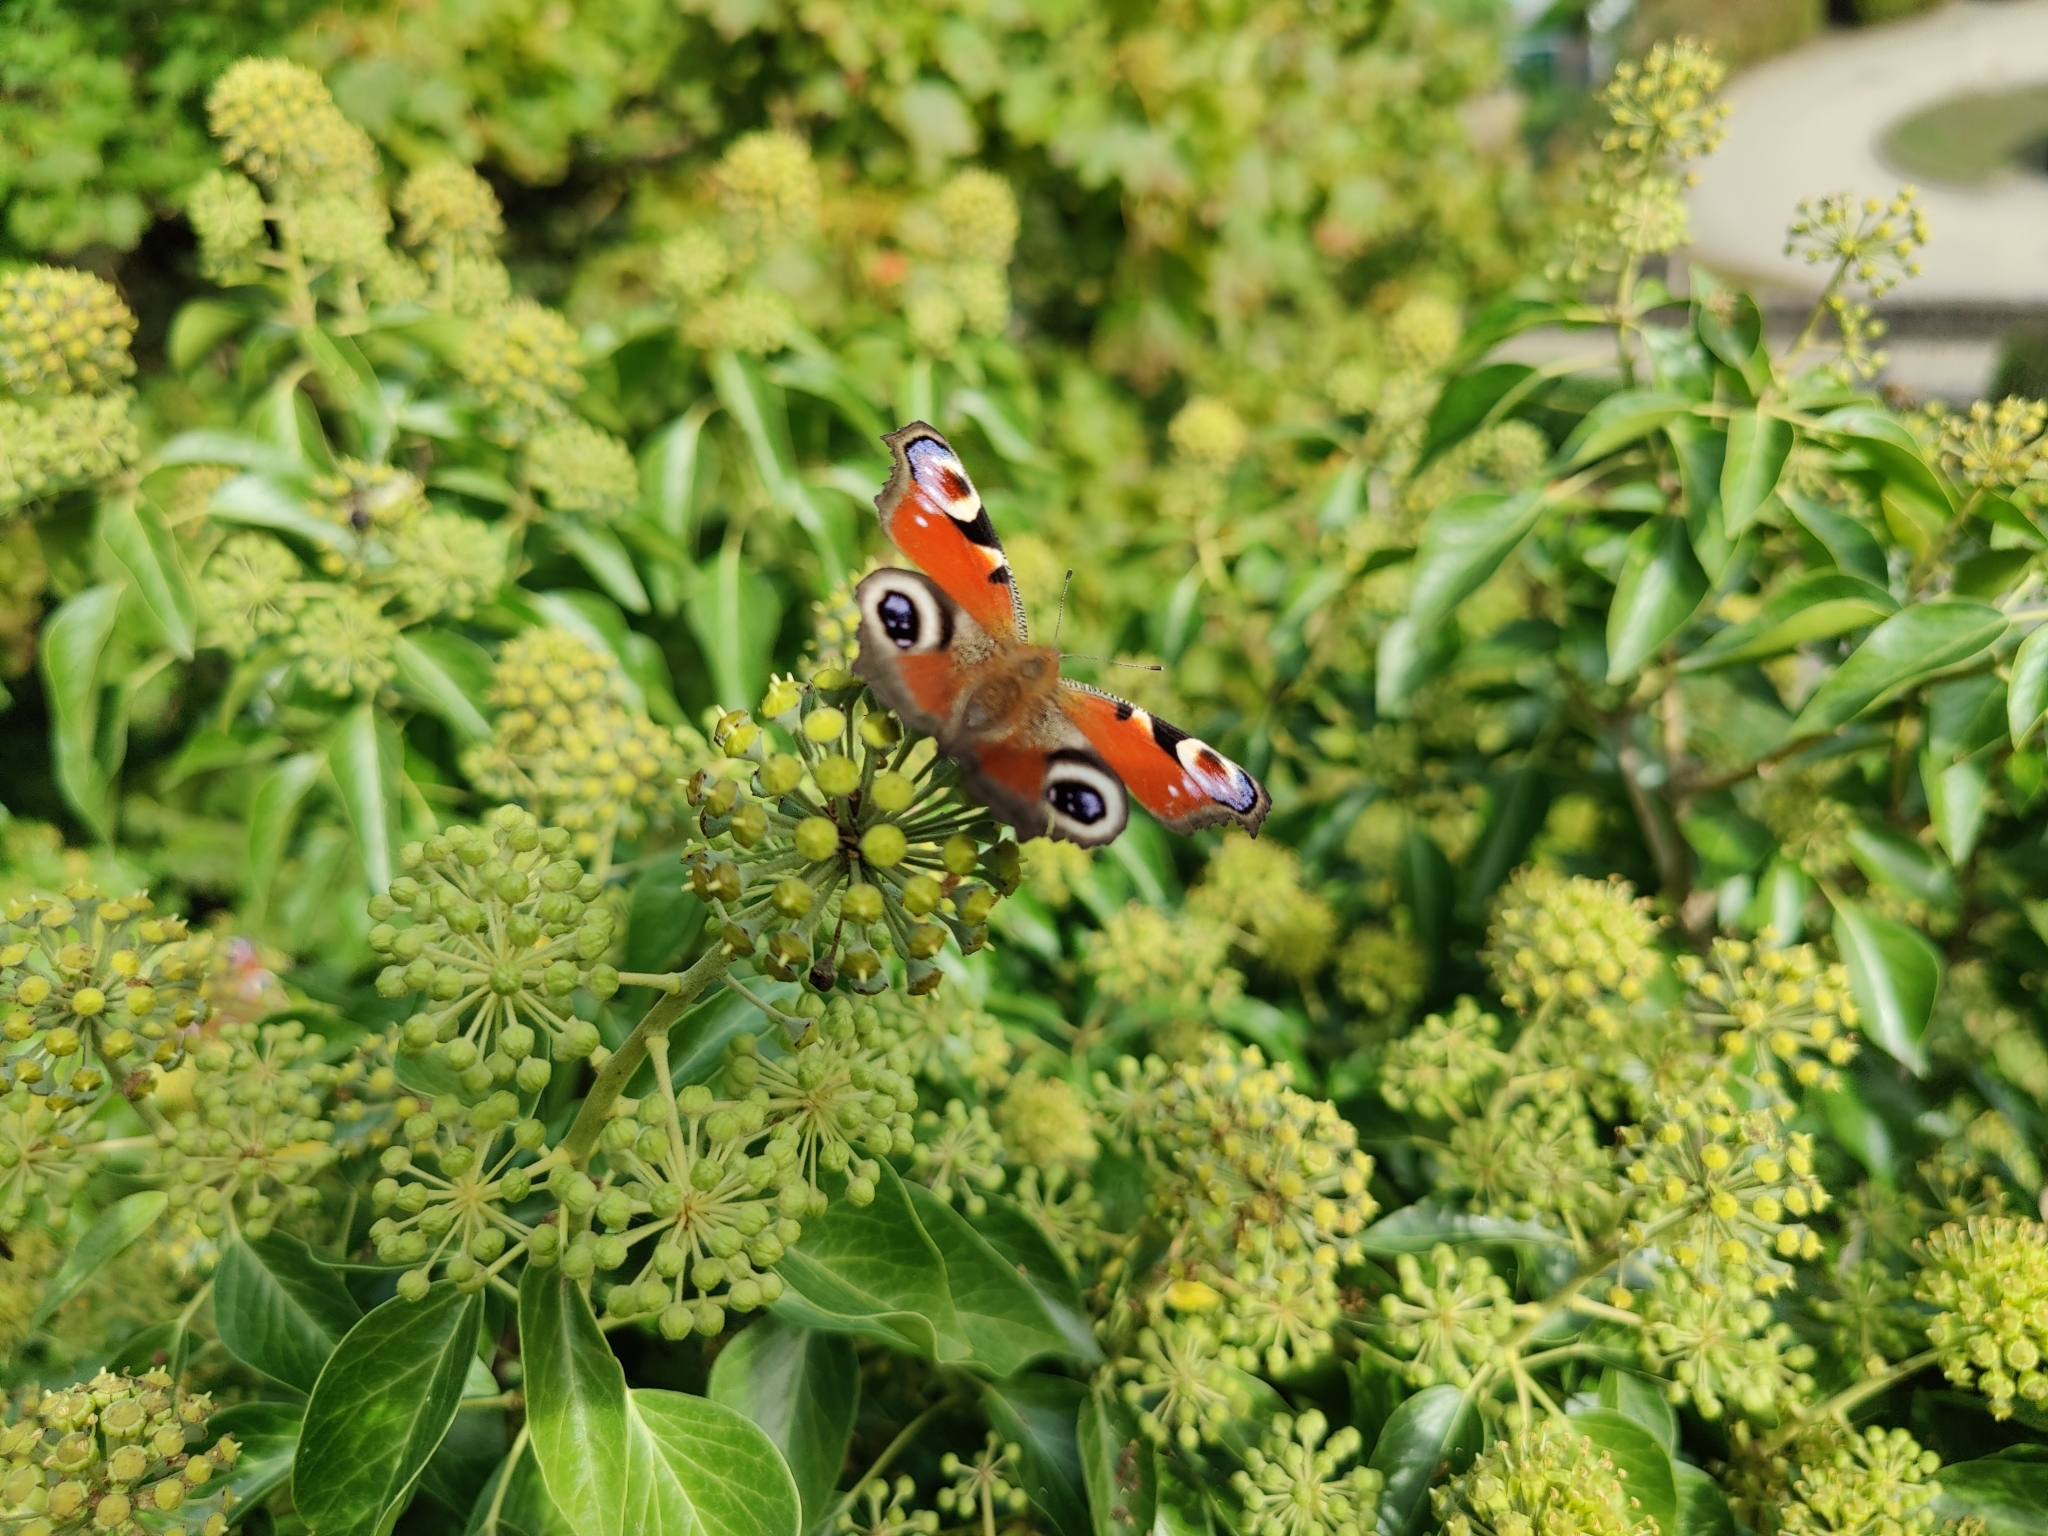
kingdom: Animalia
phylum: Arthropoda
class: Insecta
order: Lepidoptera
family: Nymphalidae
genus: Aglais
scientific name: Aglais io
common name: Peacock
